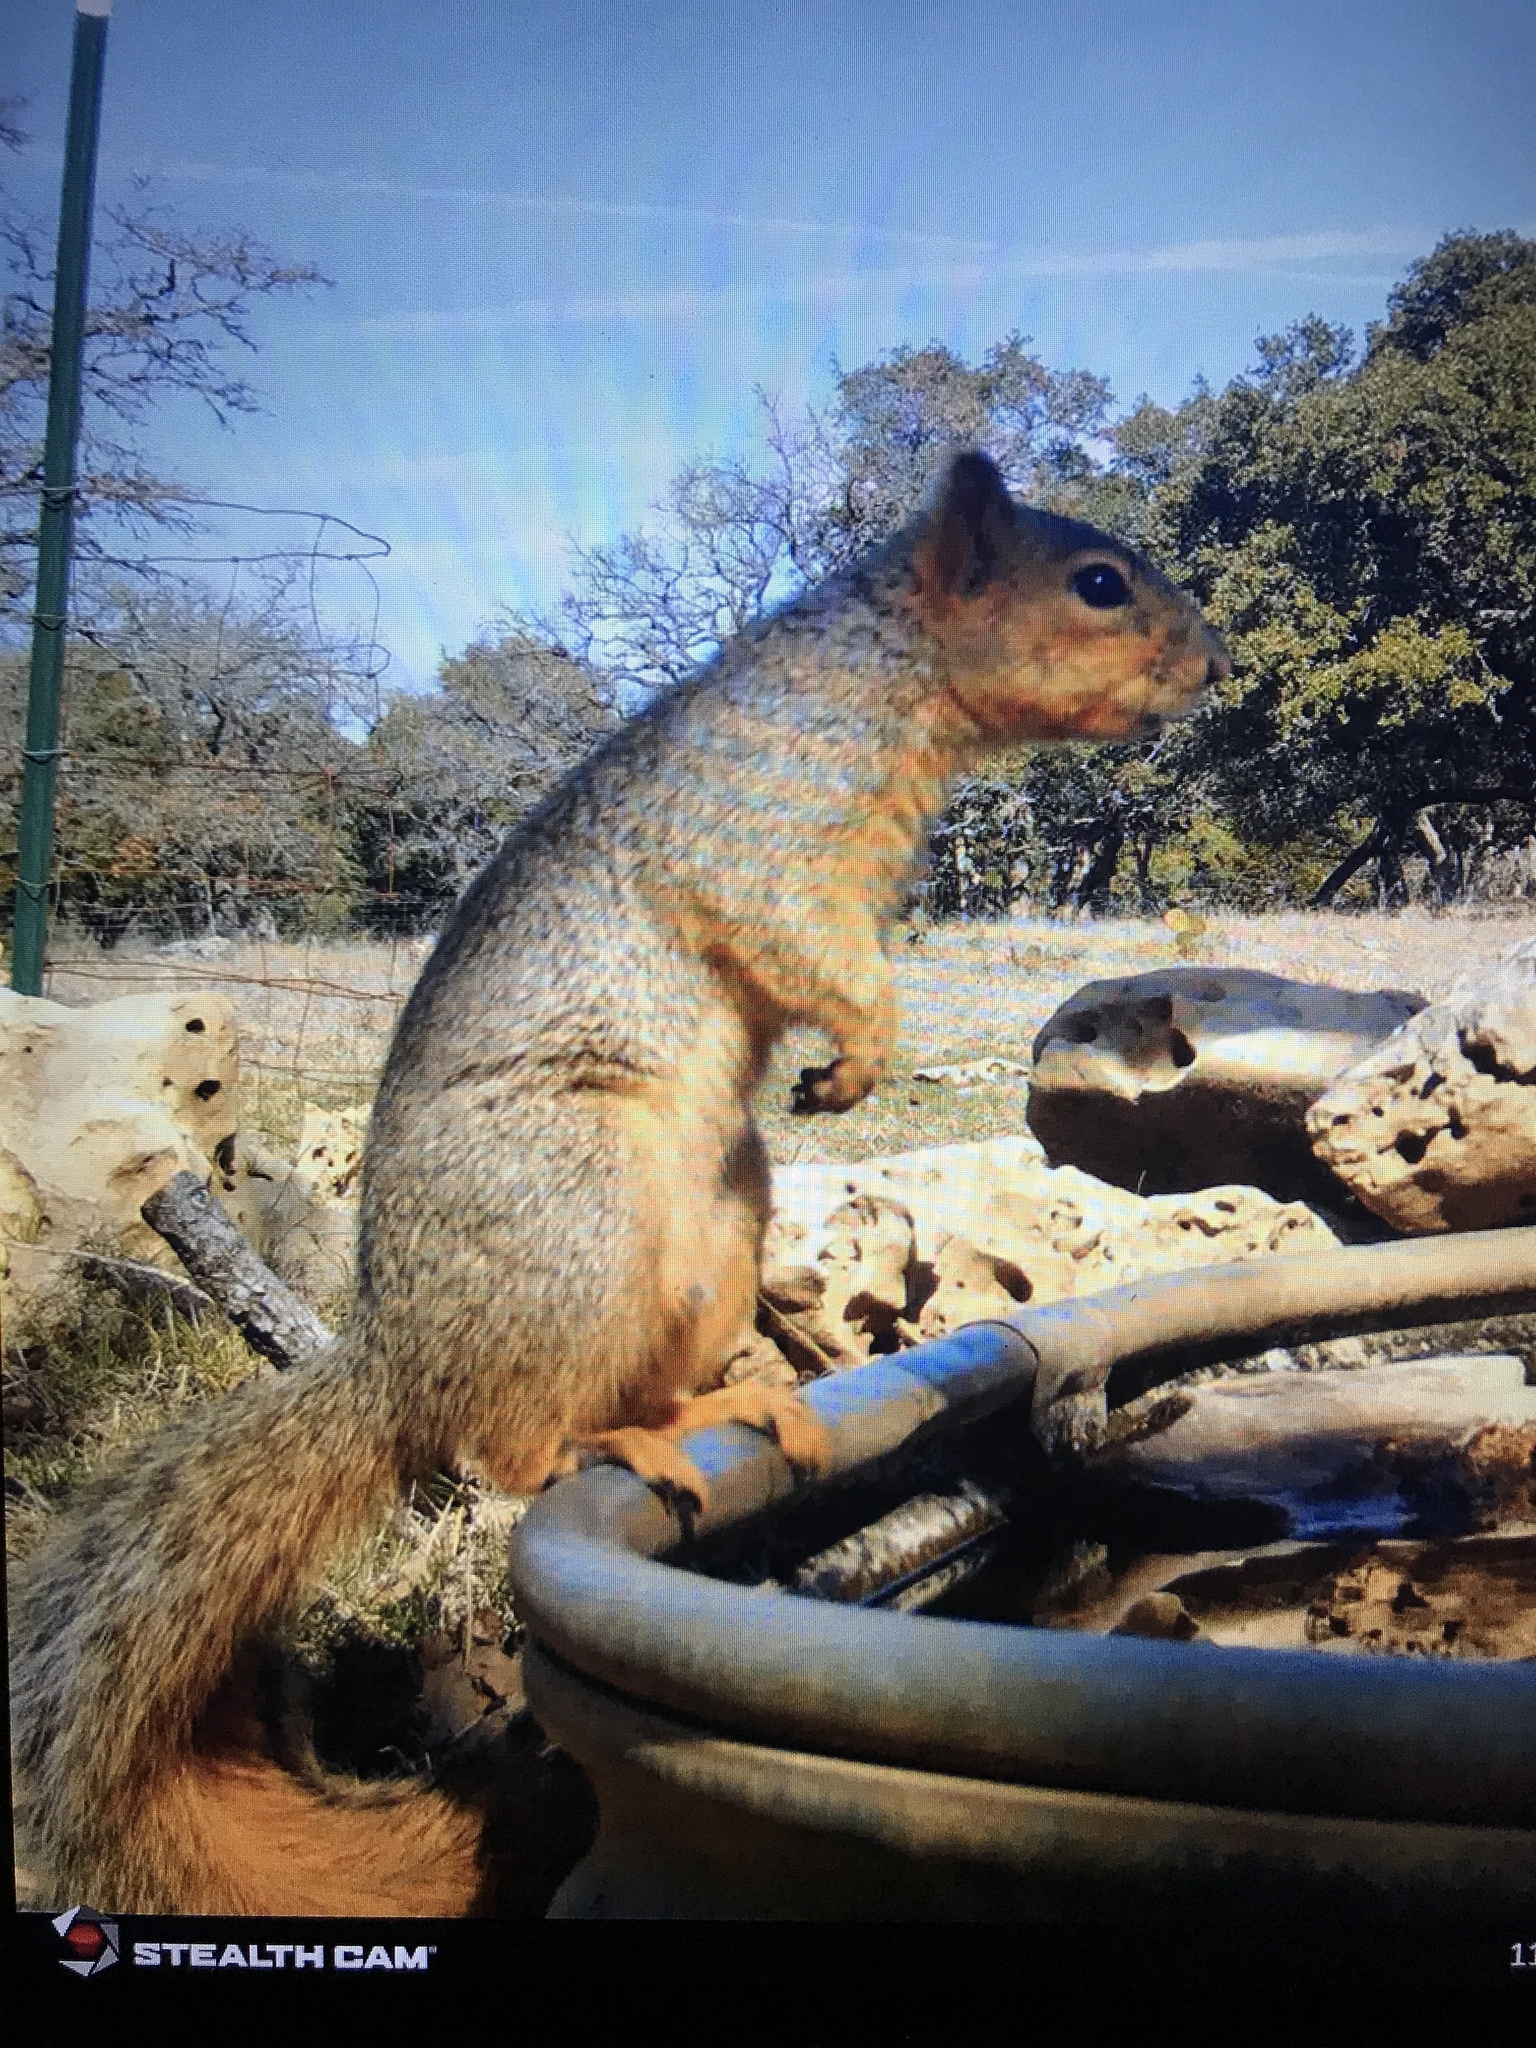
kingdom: Animalia
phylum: Chordata
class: Mammalia
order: Rodentia
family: Sciuridae
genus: Sciurus
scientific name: Sciurus niger
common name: Fox squirrel
